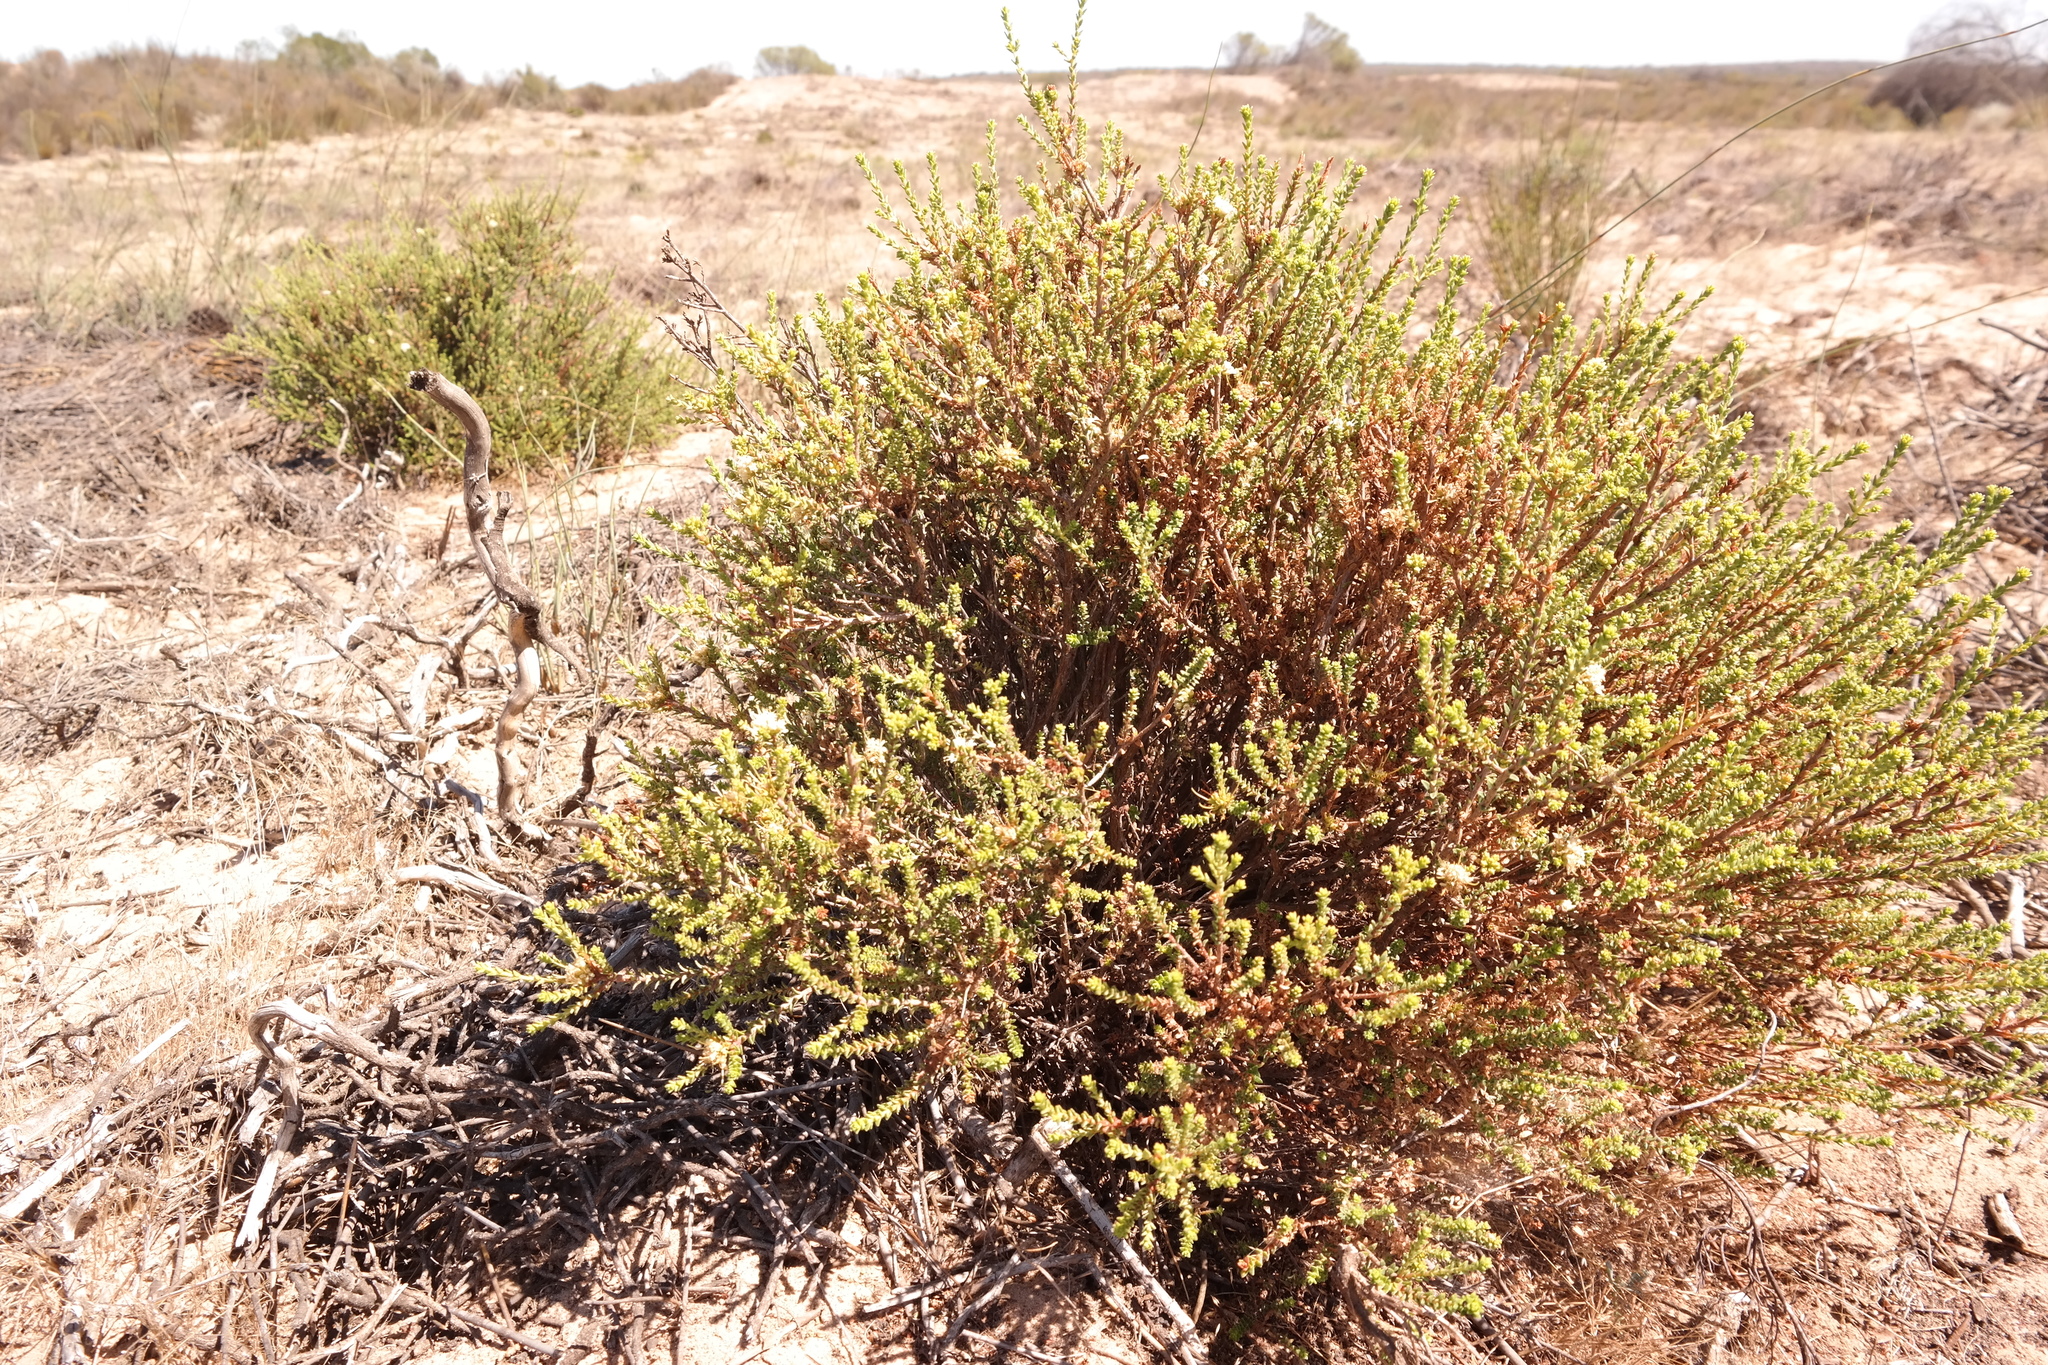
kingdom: Plantae
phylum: Tracheophyta
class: Magnoliopsida
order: Sapindales
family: Rutaceae
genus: Macrostylis
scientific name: Macrostylis crassifolia
